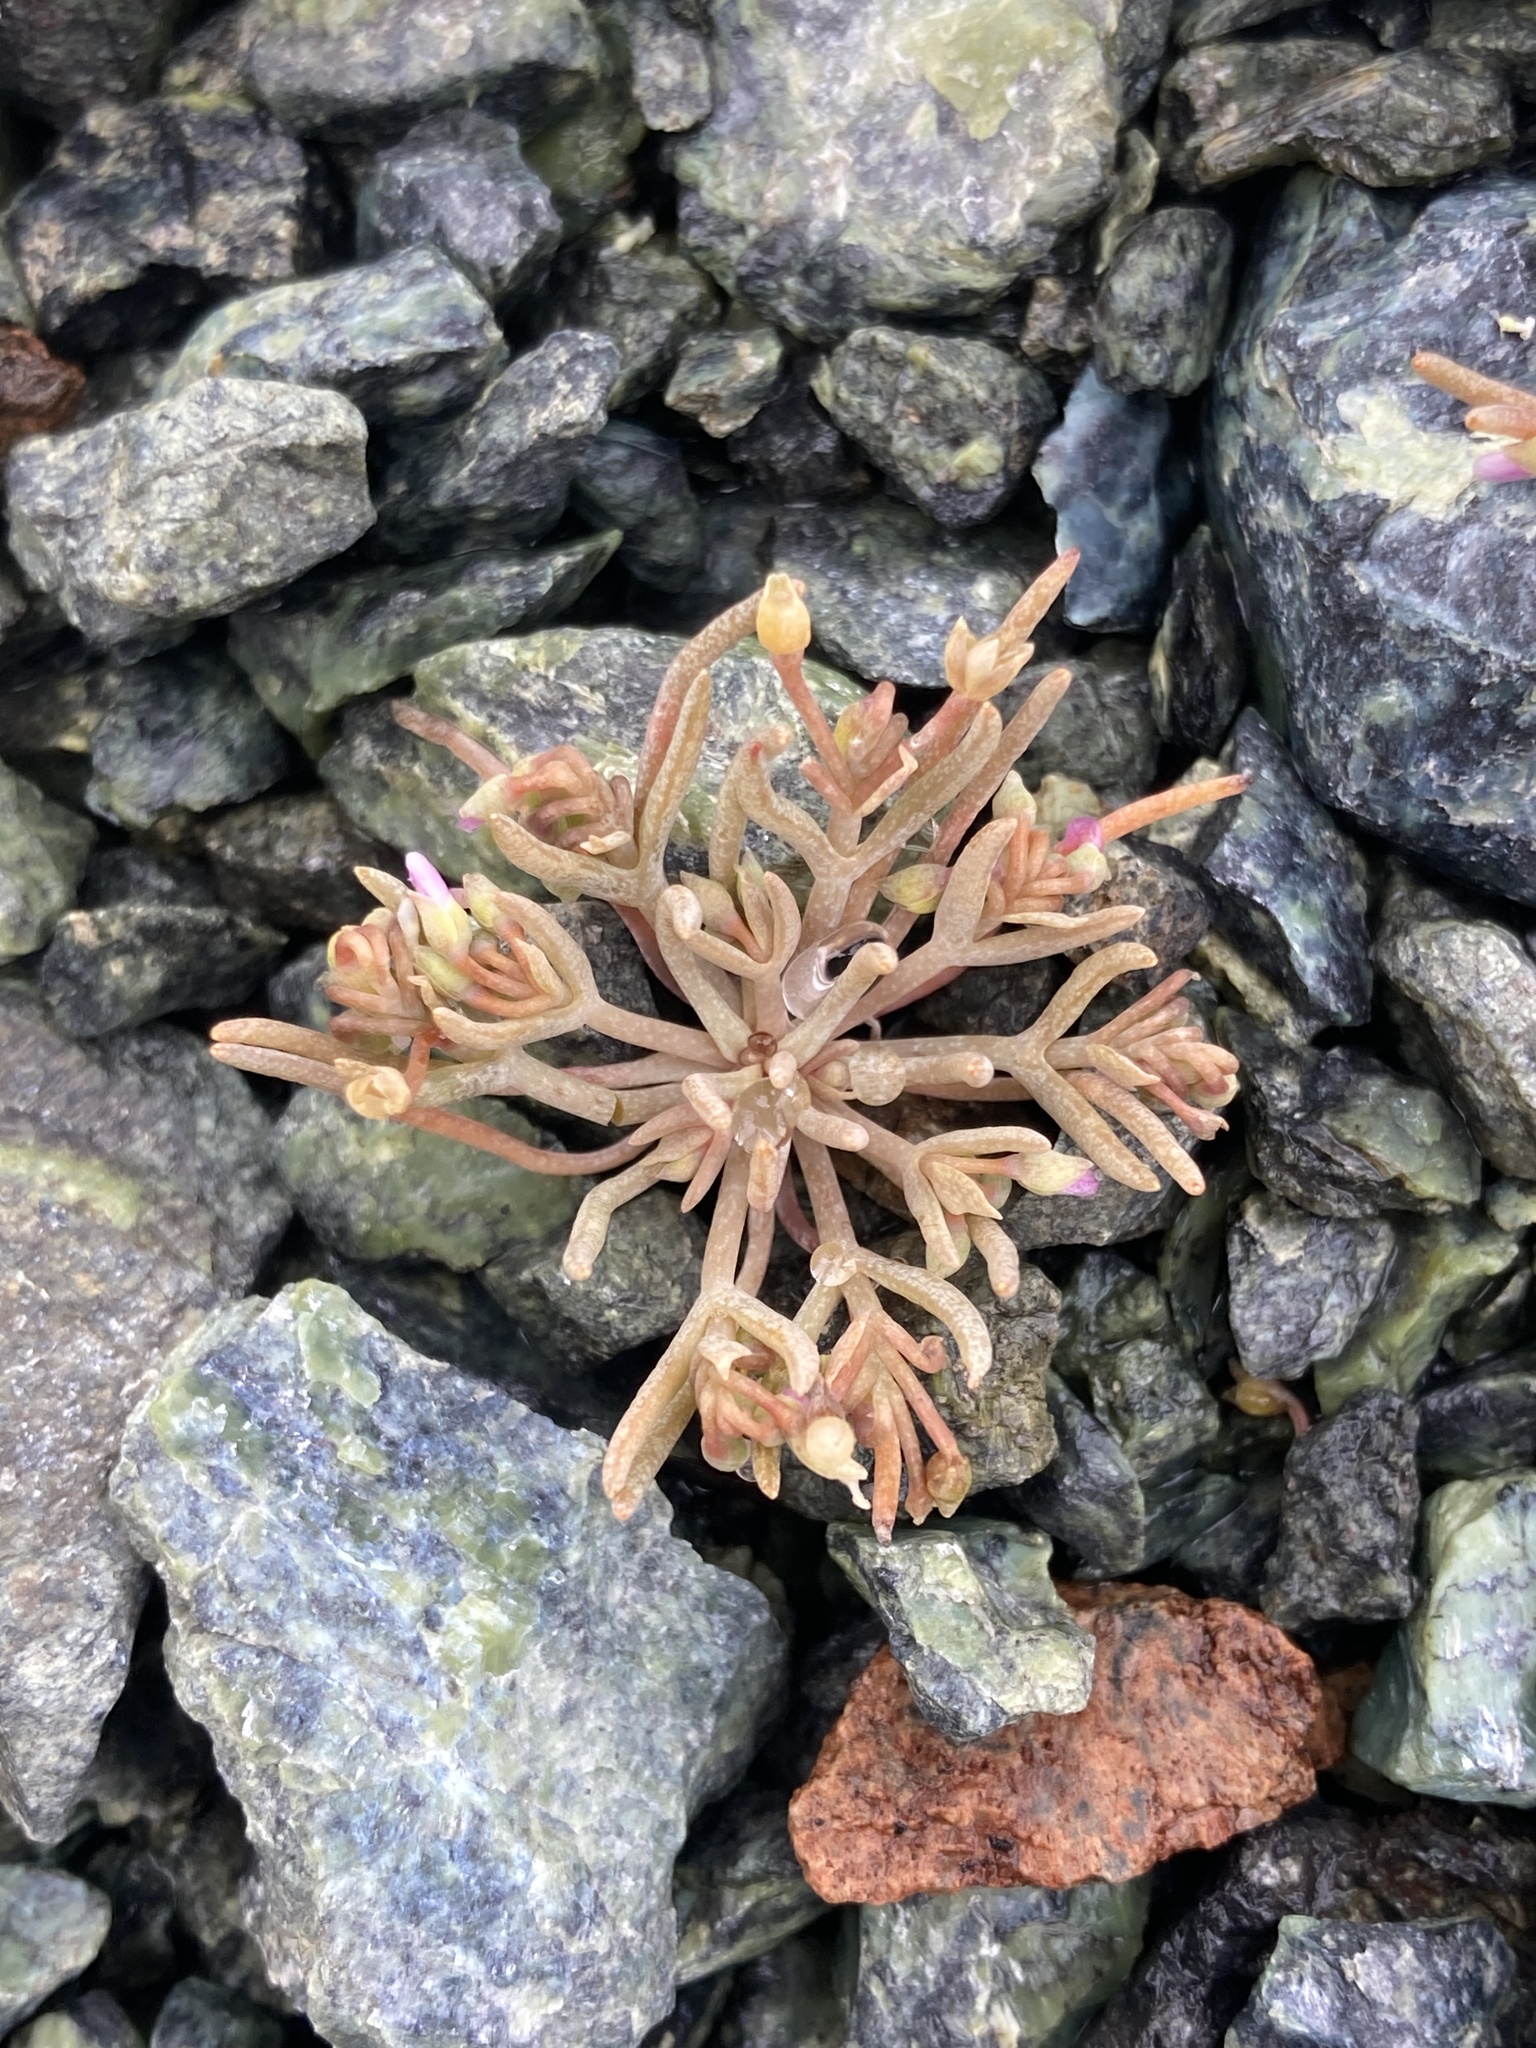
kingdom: Plantae
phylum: Tracheophyta
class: Magnoliopsida
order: Caryophyllales
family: Montiaceae
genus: Claytonia
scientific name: Claytonia exigua
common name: Pale spring beauty
